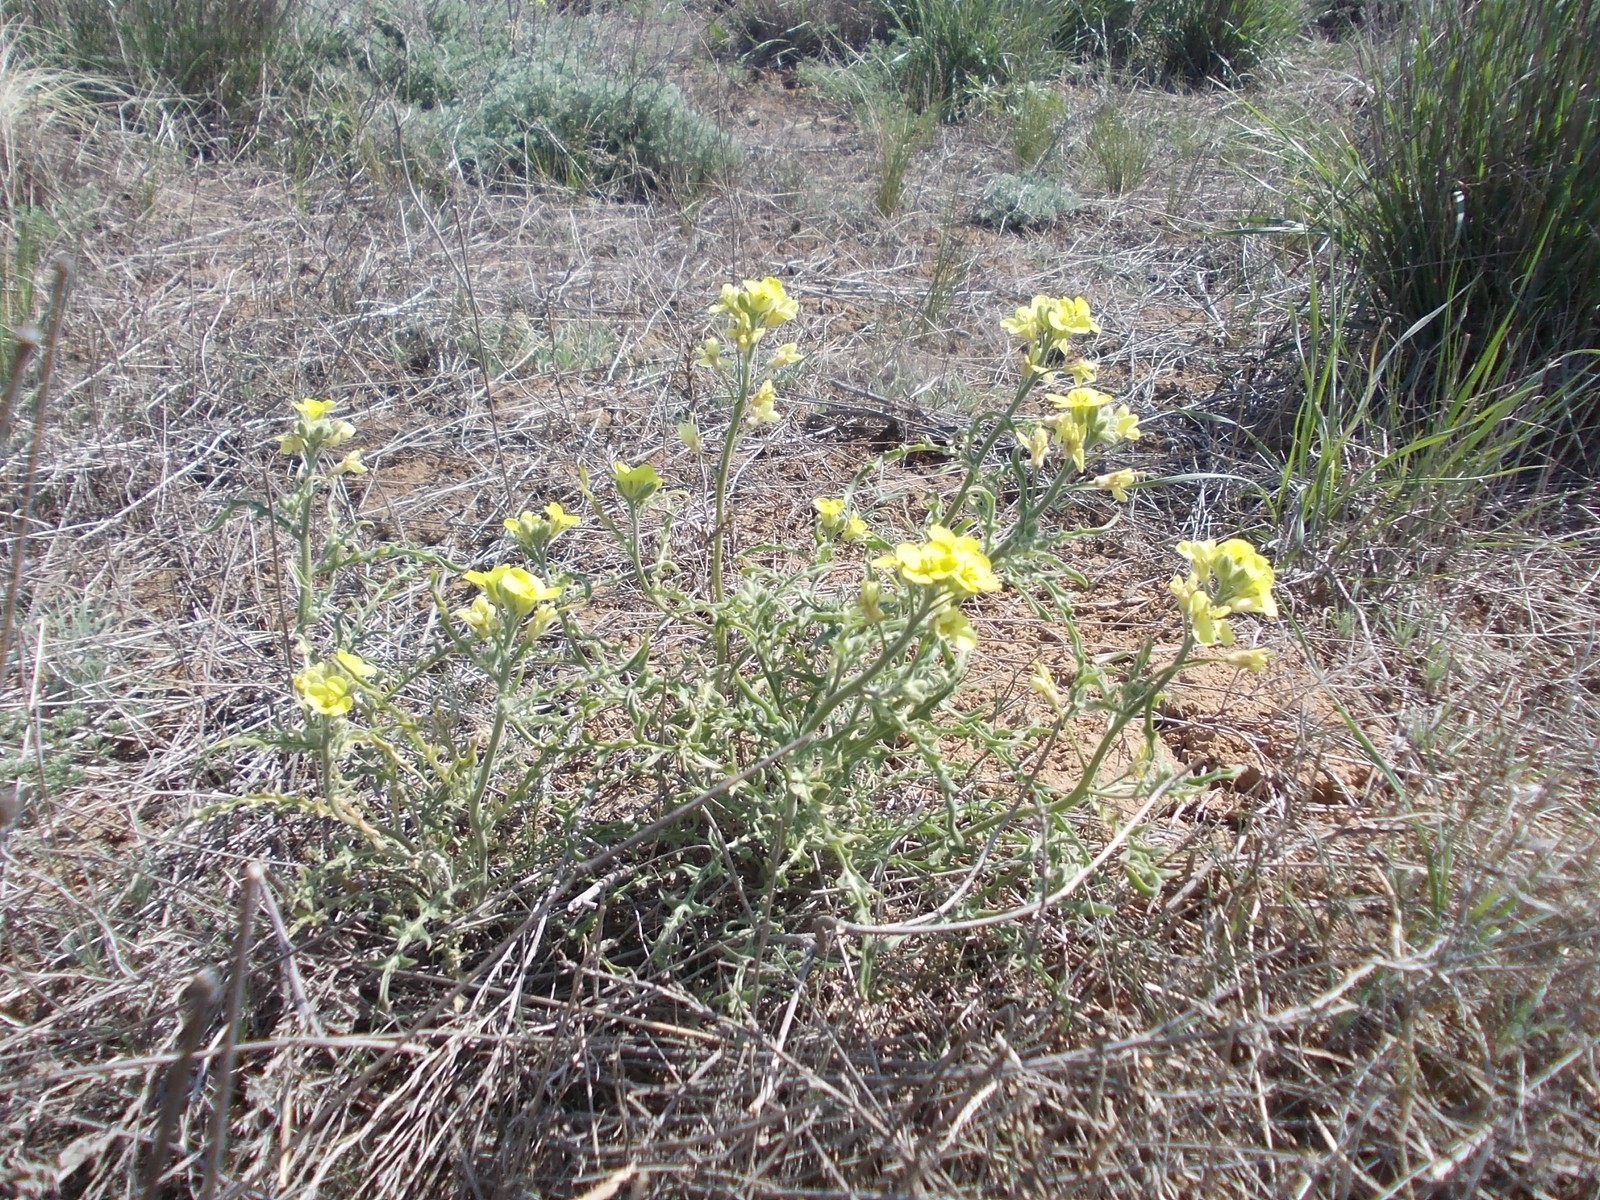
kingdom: Plantae
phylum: Tracheophyta
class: Magnoliopsida
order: Brassicales
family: Brassicaceae
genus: Sterigmostemum
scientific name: Sterigmostemum caspicum
